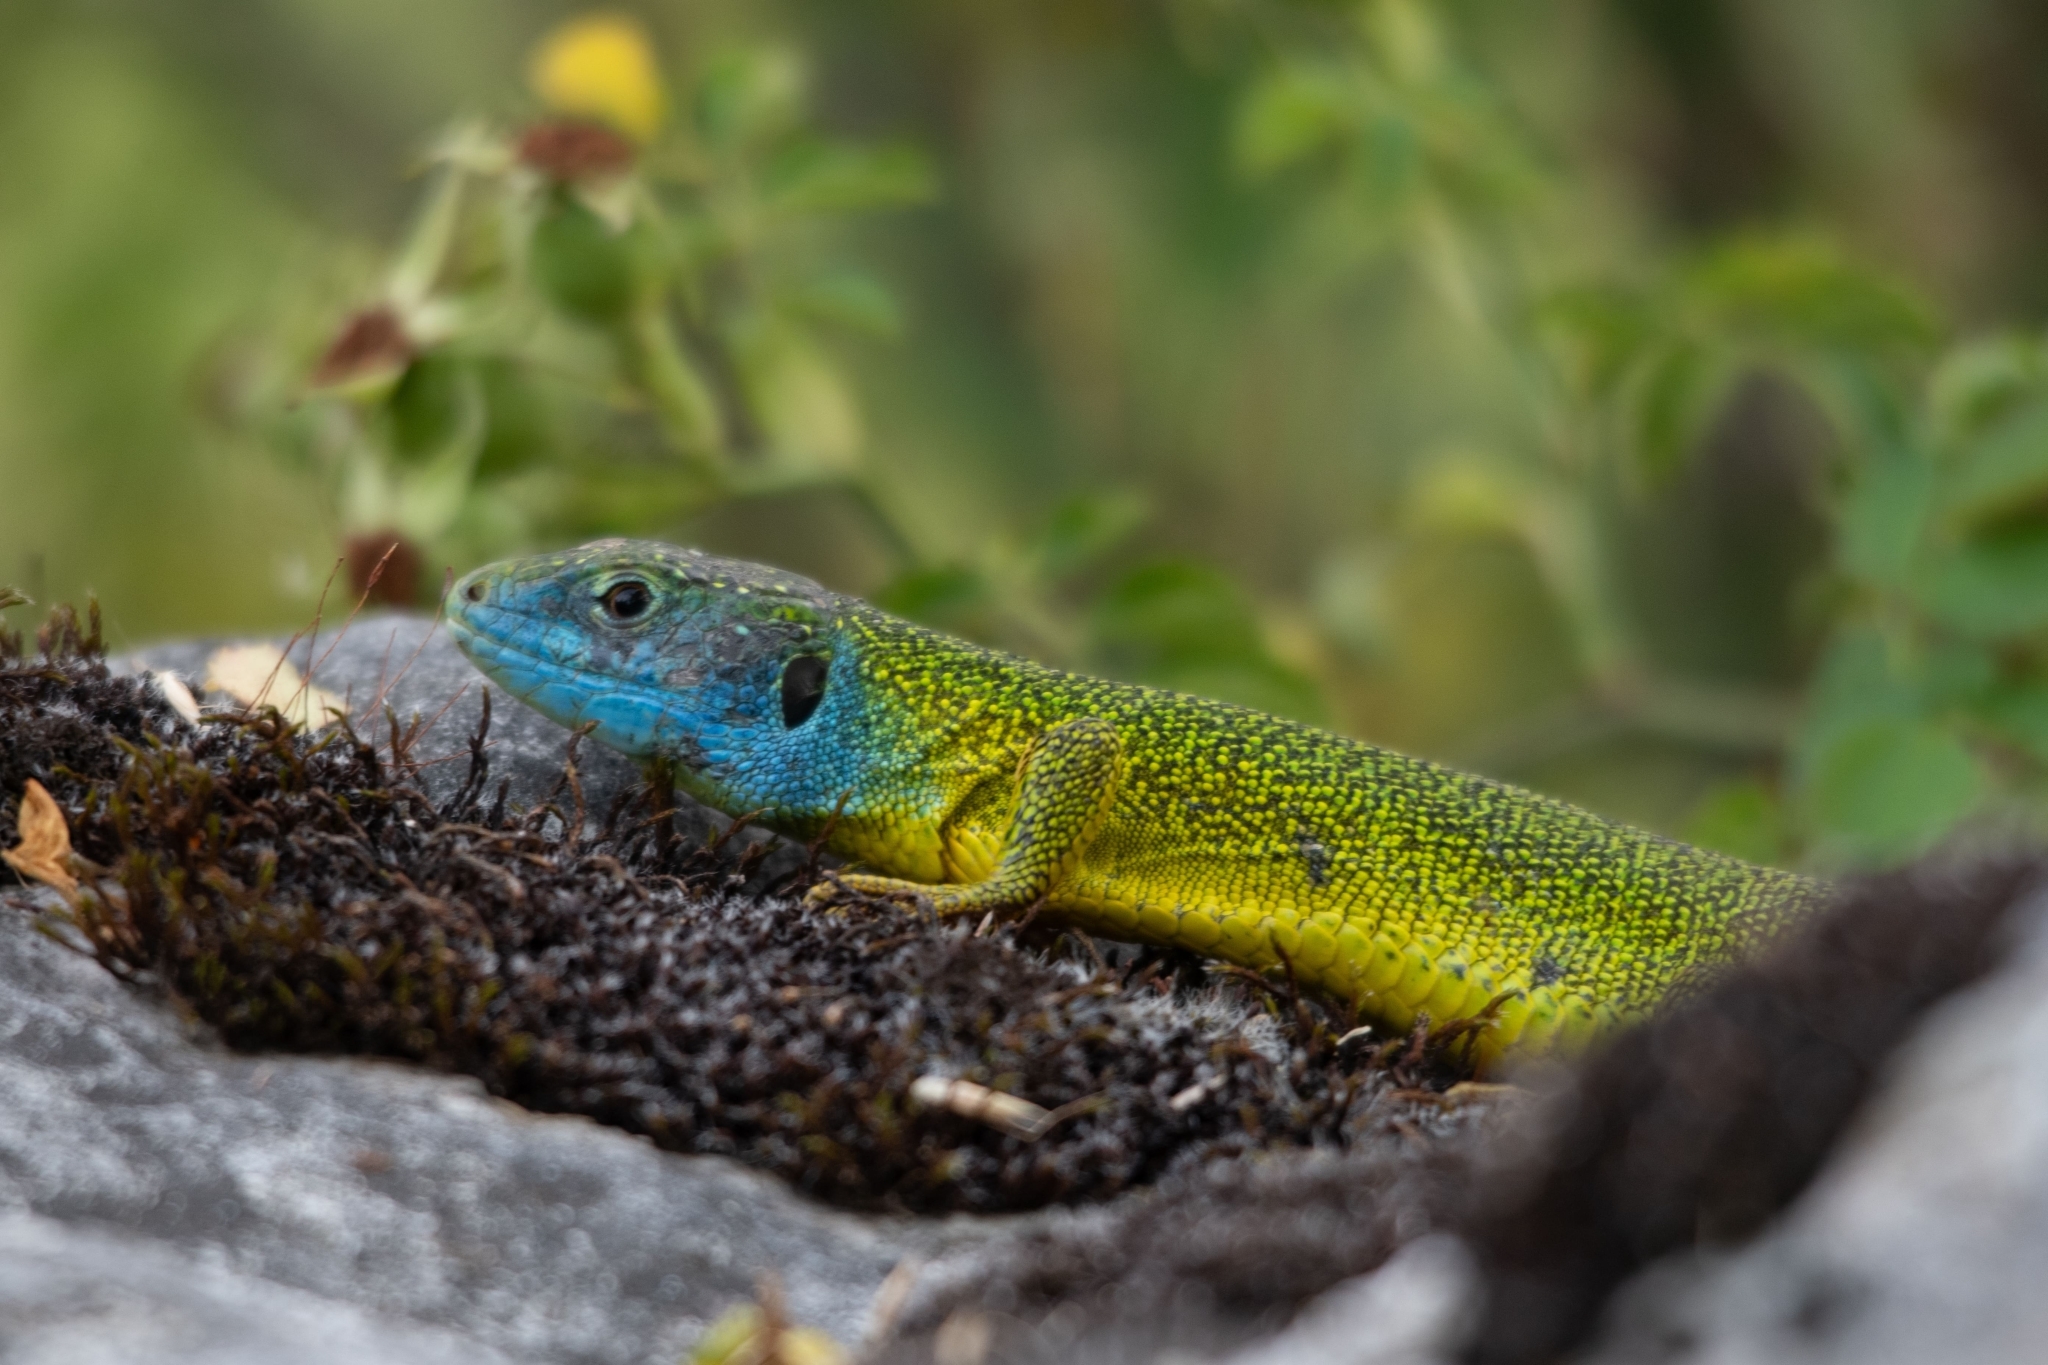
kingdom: Animalia
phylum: Chordata
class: Squamata
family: Lacertidae
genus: Lacerta
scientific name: Lacerta bilineata
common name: Western green lizard
